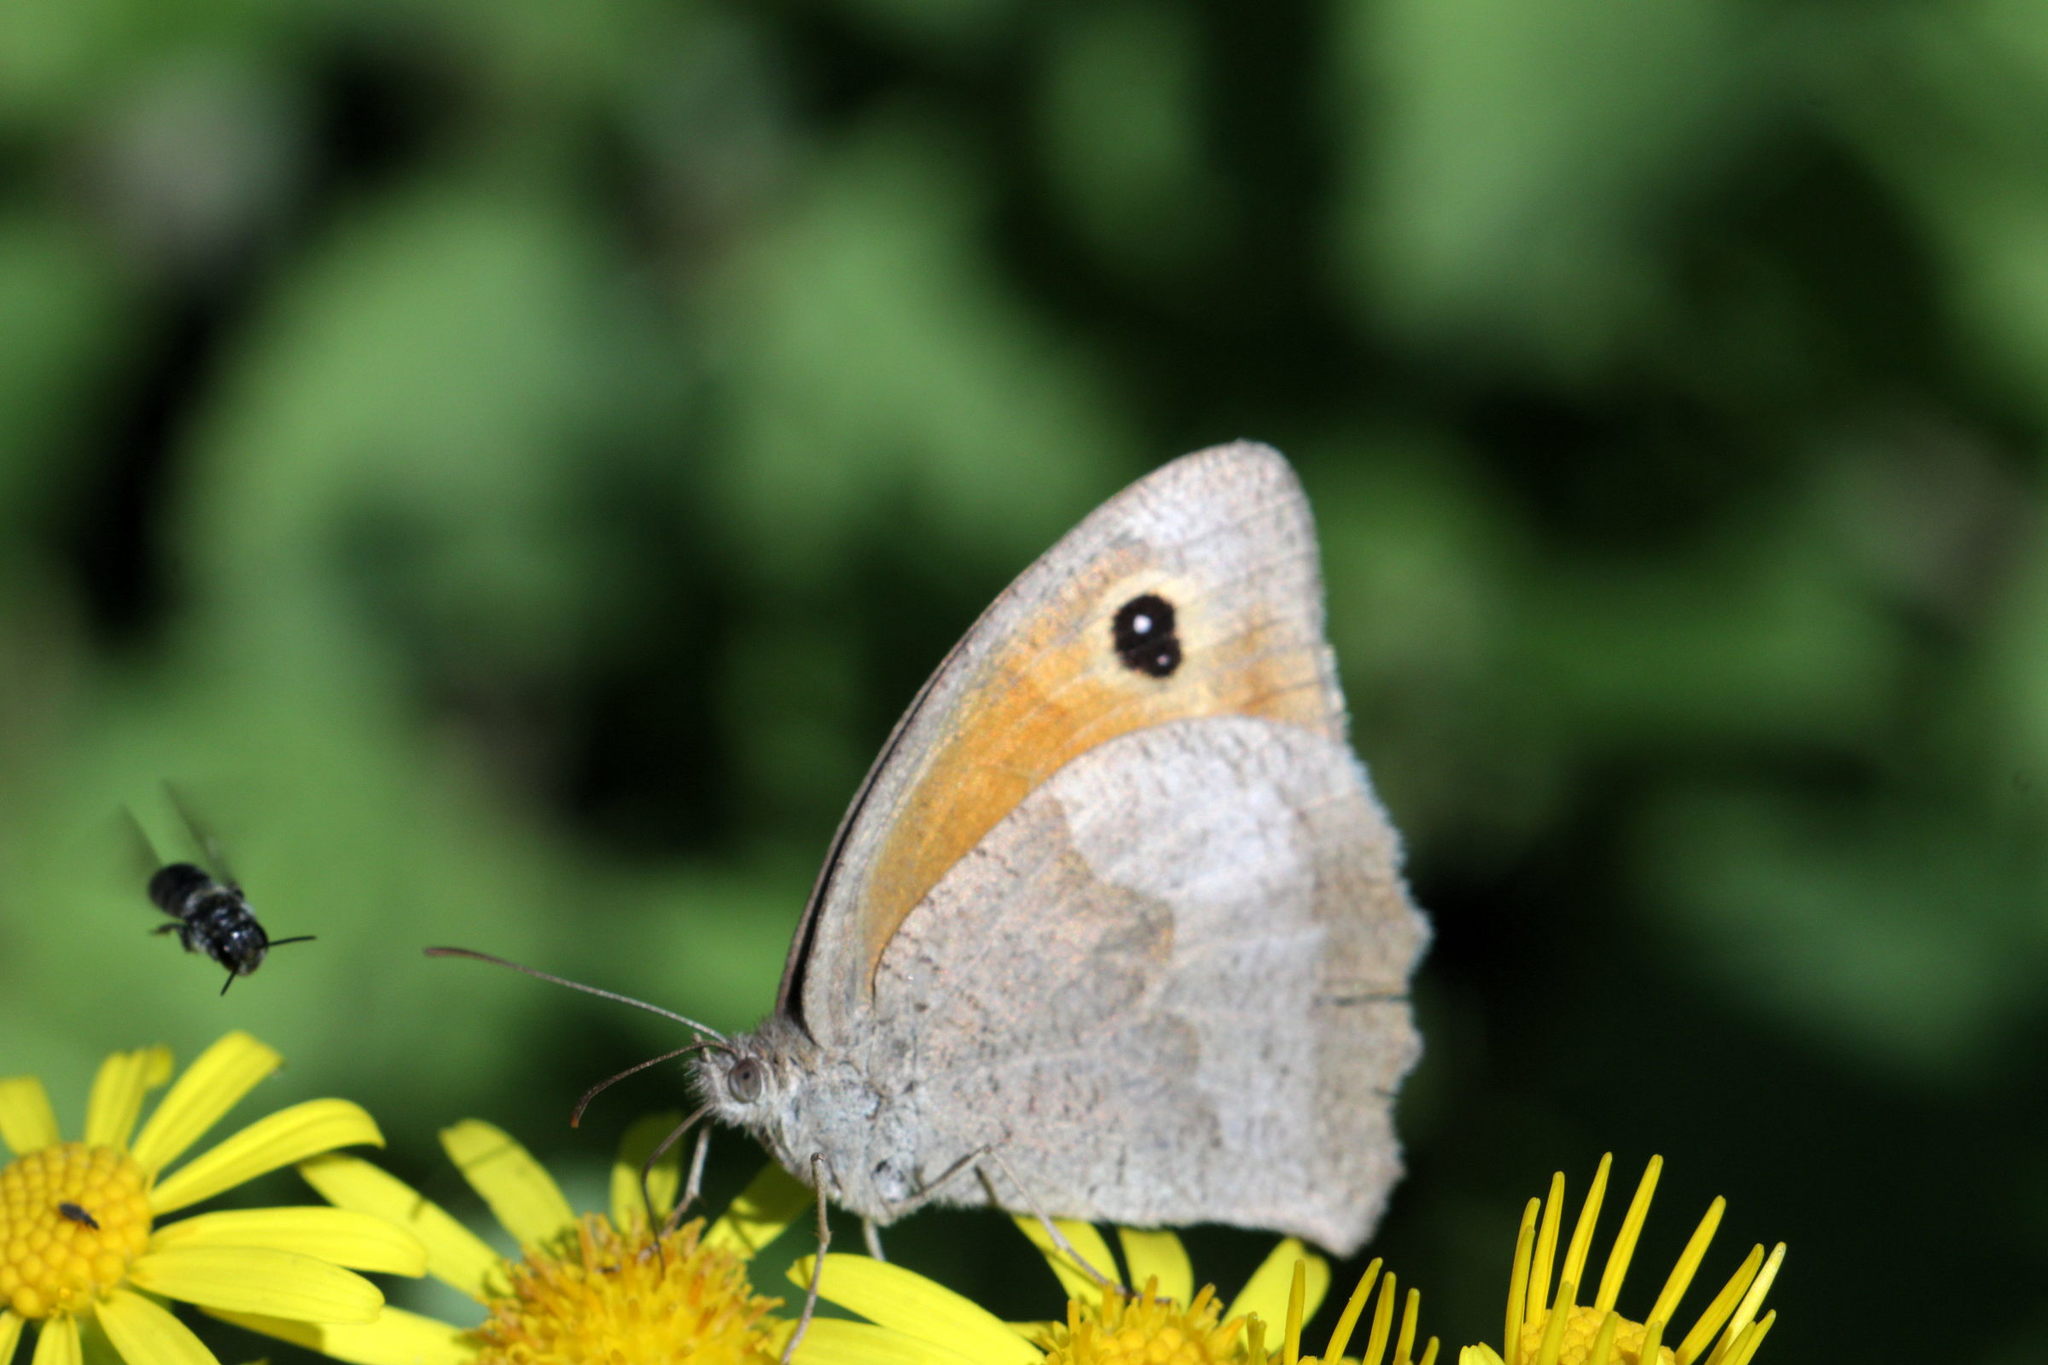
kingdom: Animalia
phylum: Arthropoda
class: Insecta
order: Lepidoptera
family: Nymphalidae
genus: Maniola
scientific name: Maniola jurtina
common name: Meadow brown
